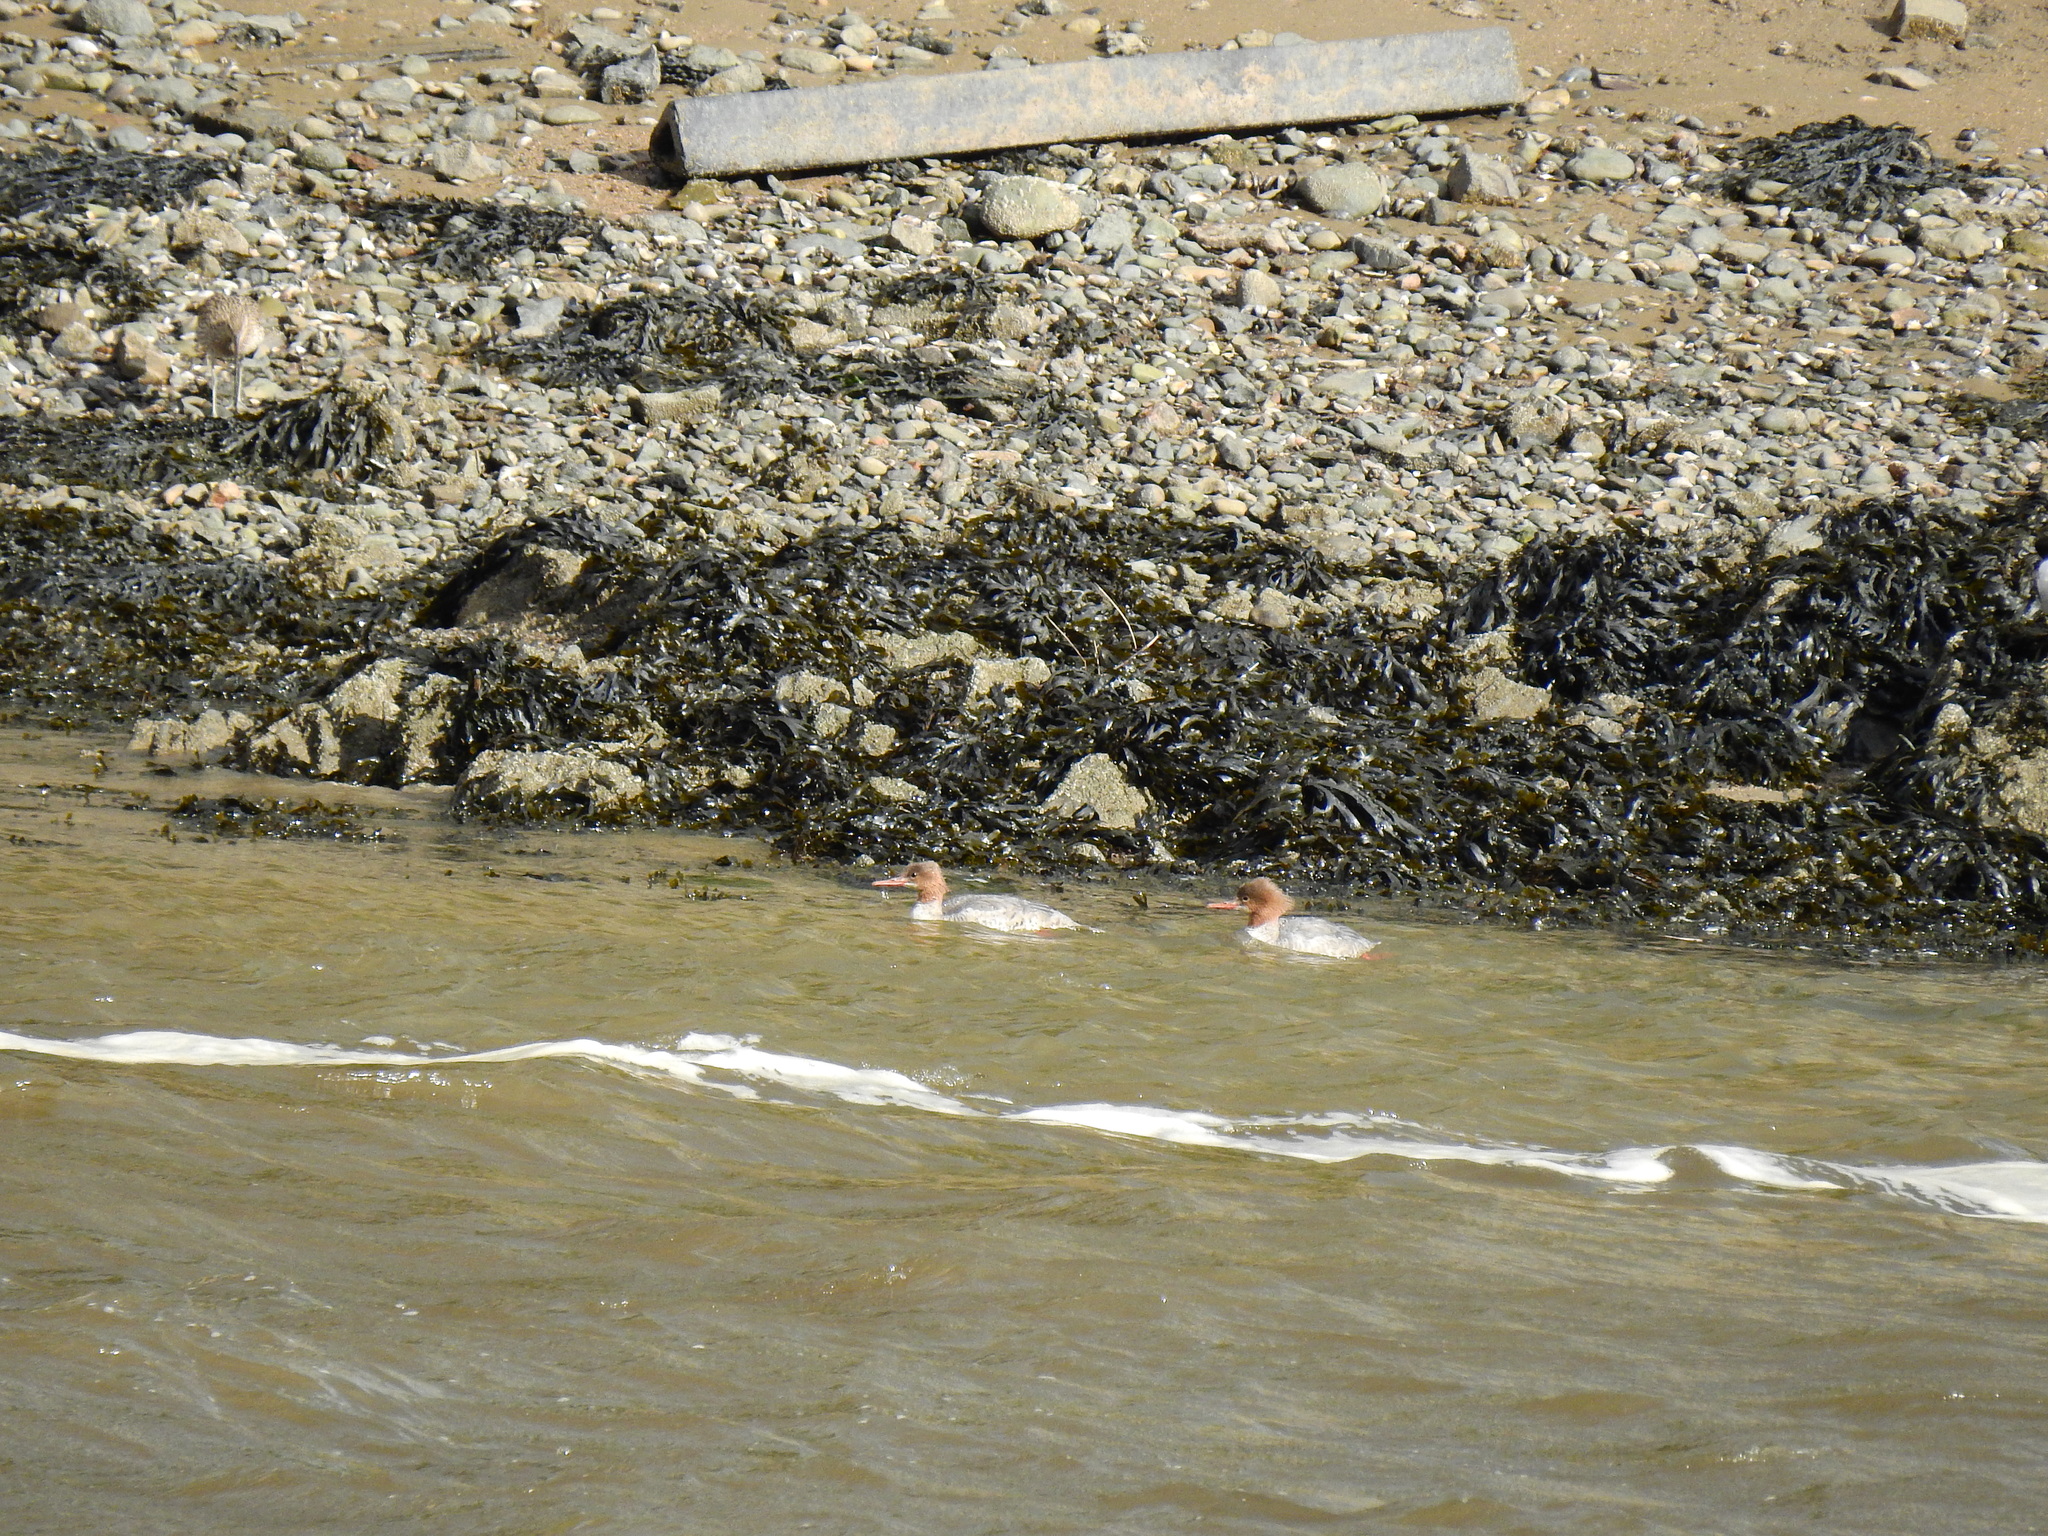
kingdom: Animalia
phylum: Chordata
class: Aves
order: Anseriformes
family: Anatidae
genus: Mergus
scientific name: Mergus merganser
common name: Common merganser
